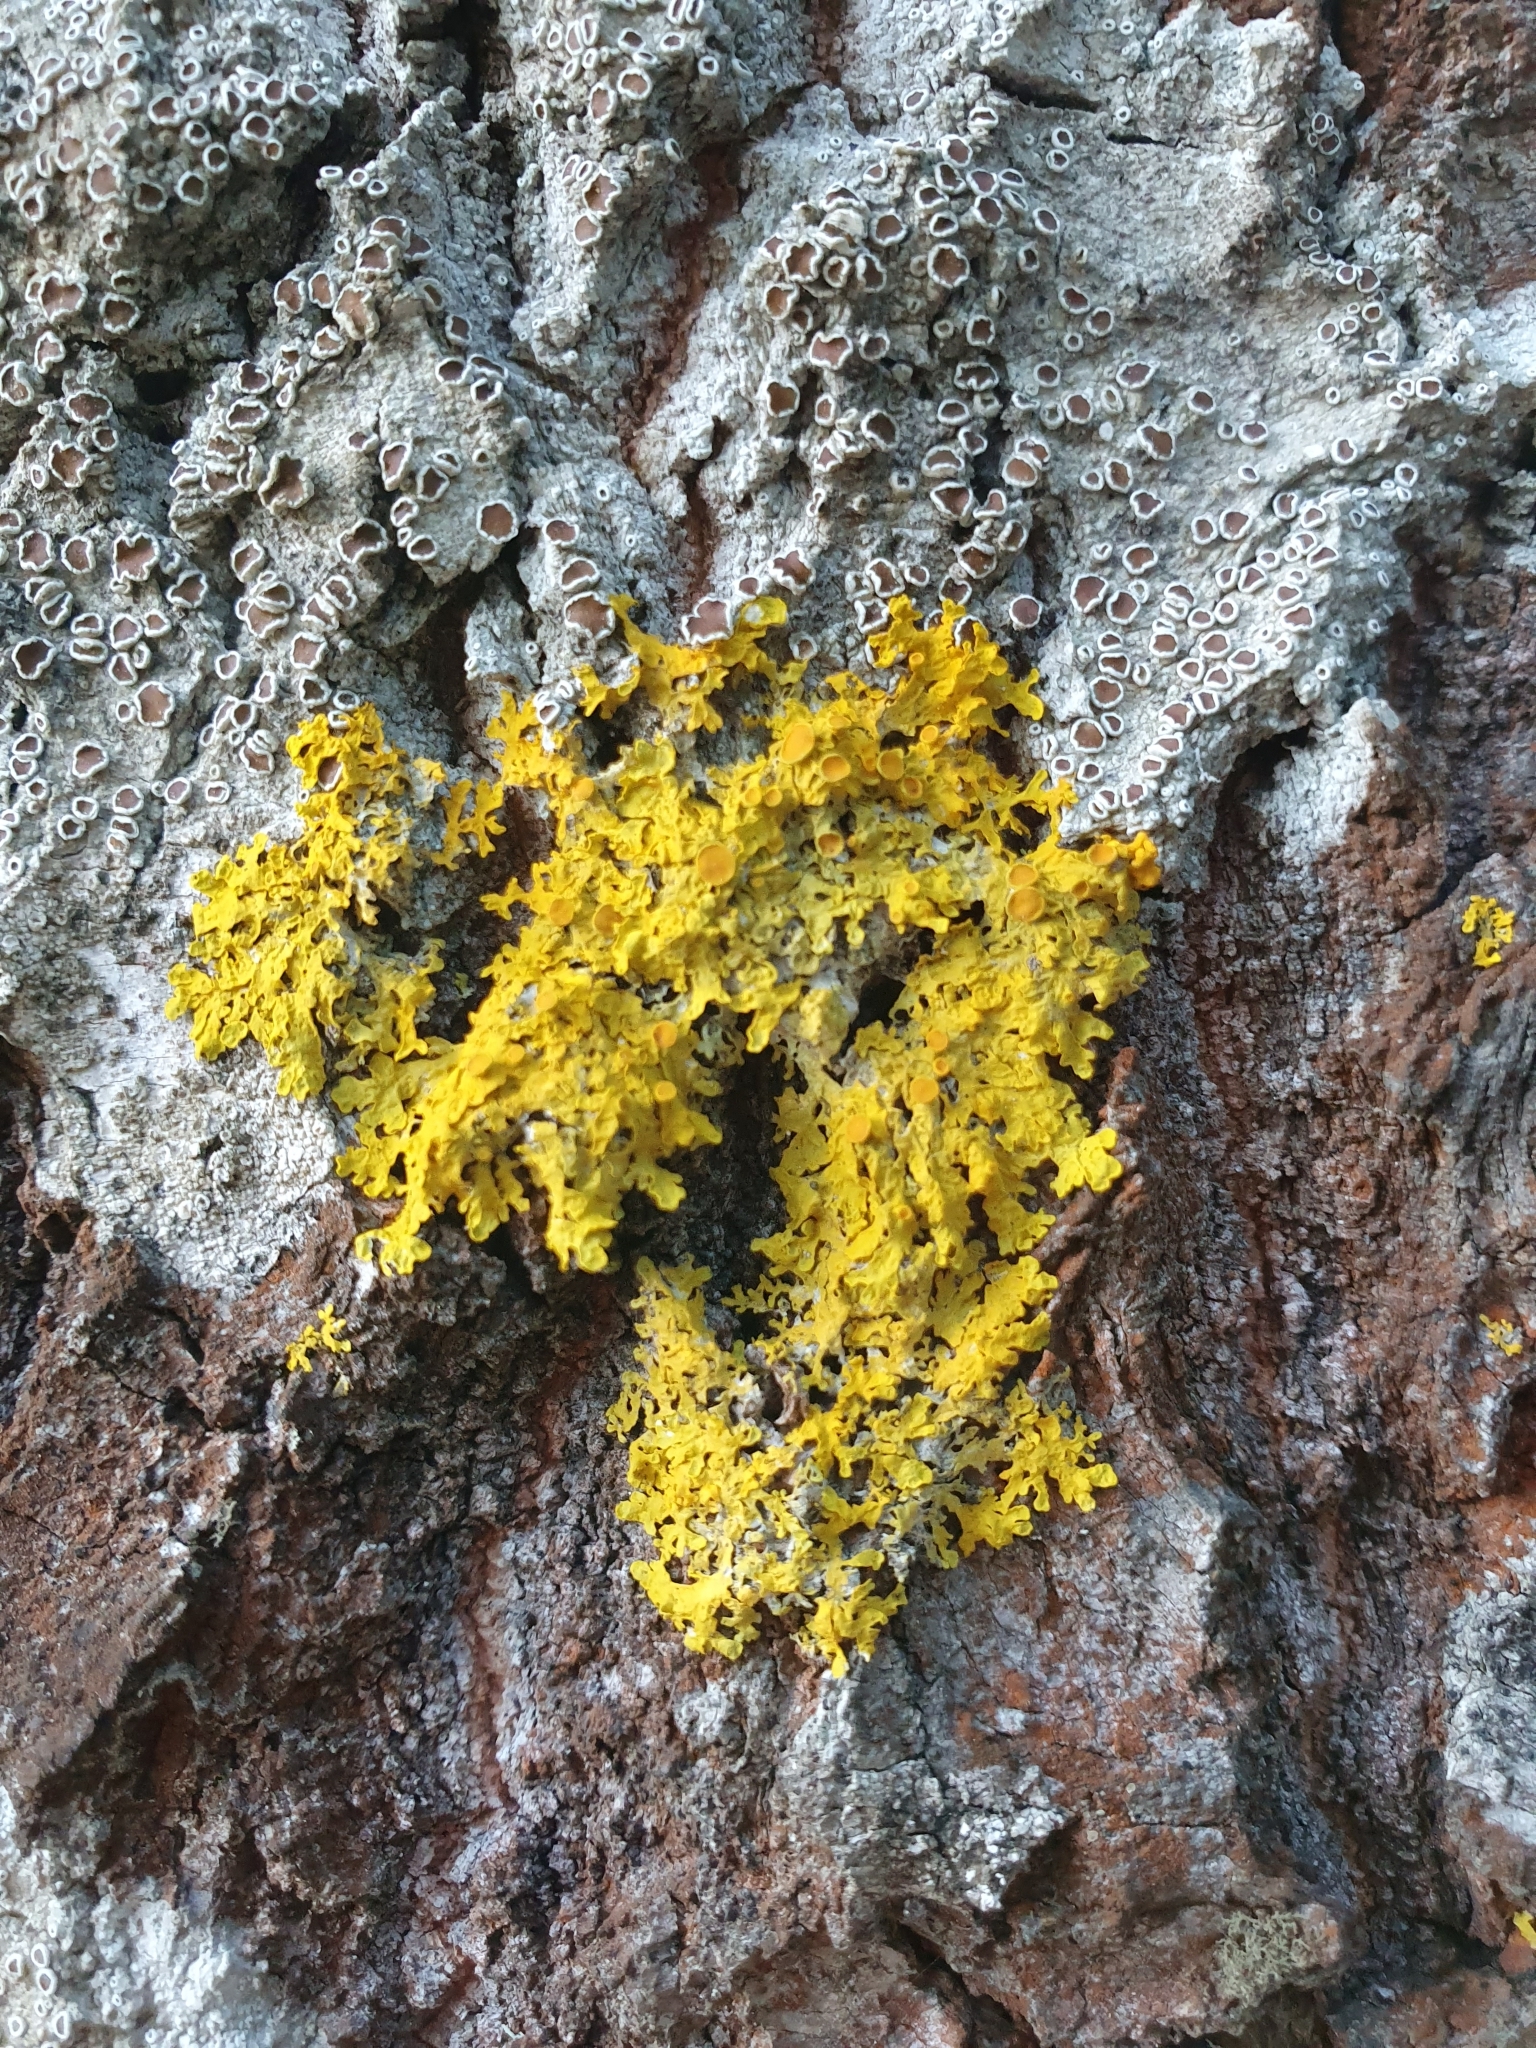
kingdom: Fungi
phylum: Ascomycota
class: Lecanoromycetes
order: Teloschistales
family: Teloschistaceae
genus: Xanthoria
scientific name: Xanthoria parietina
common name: Common orange lichen
